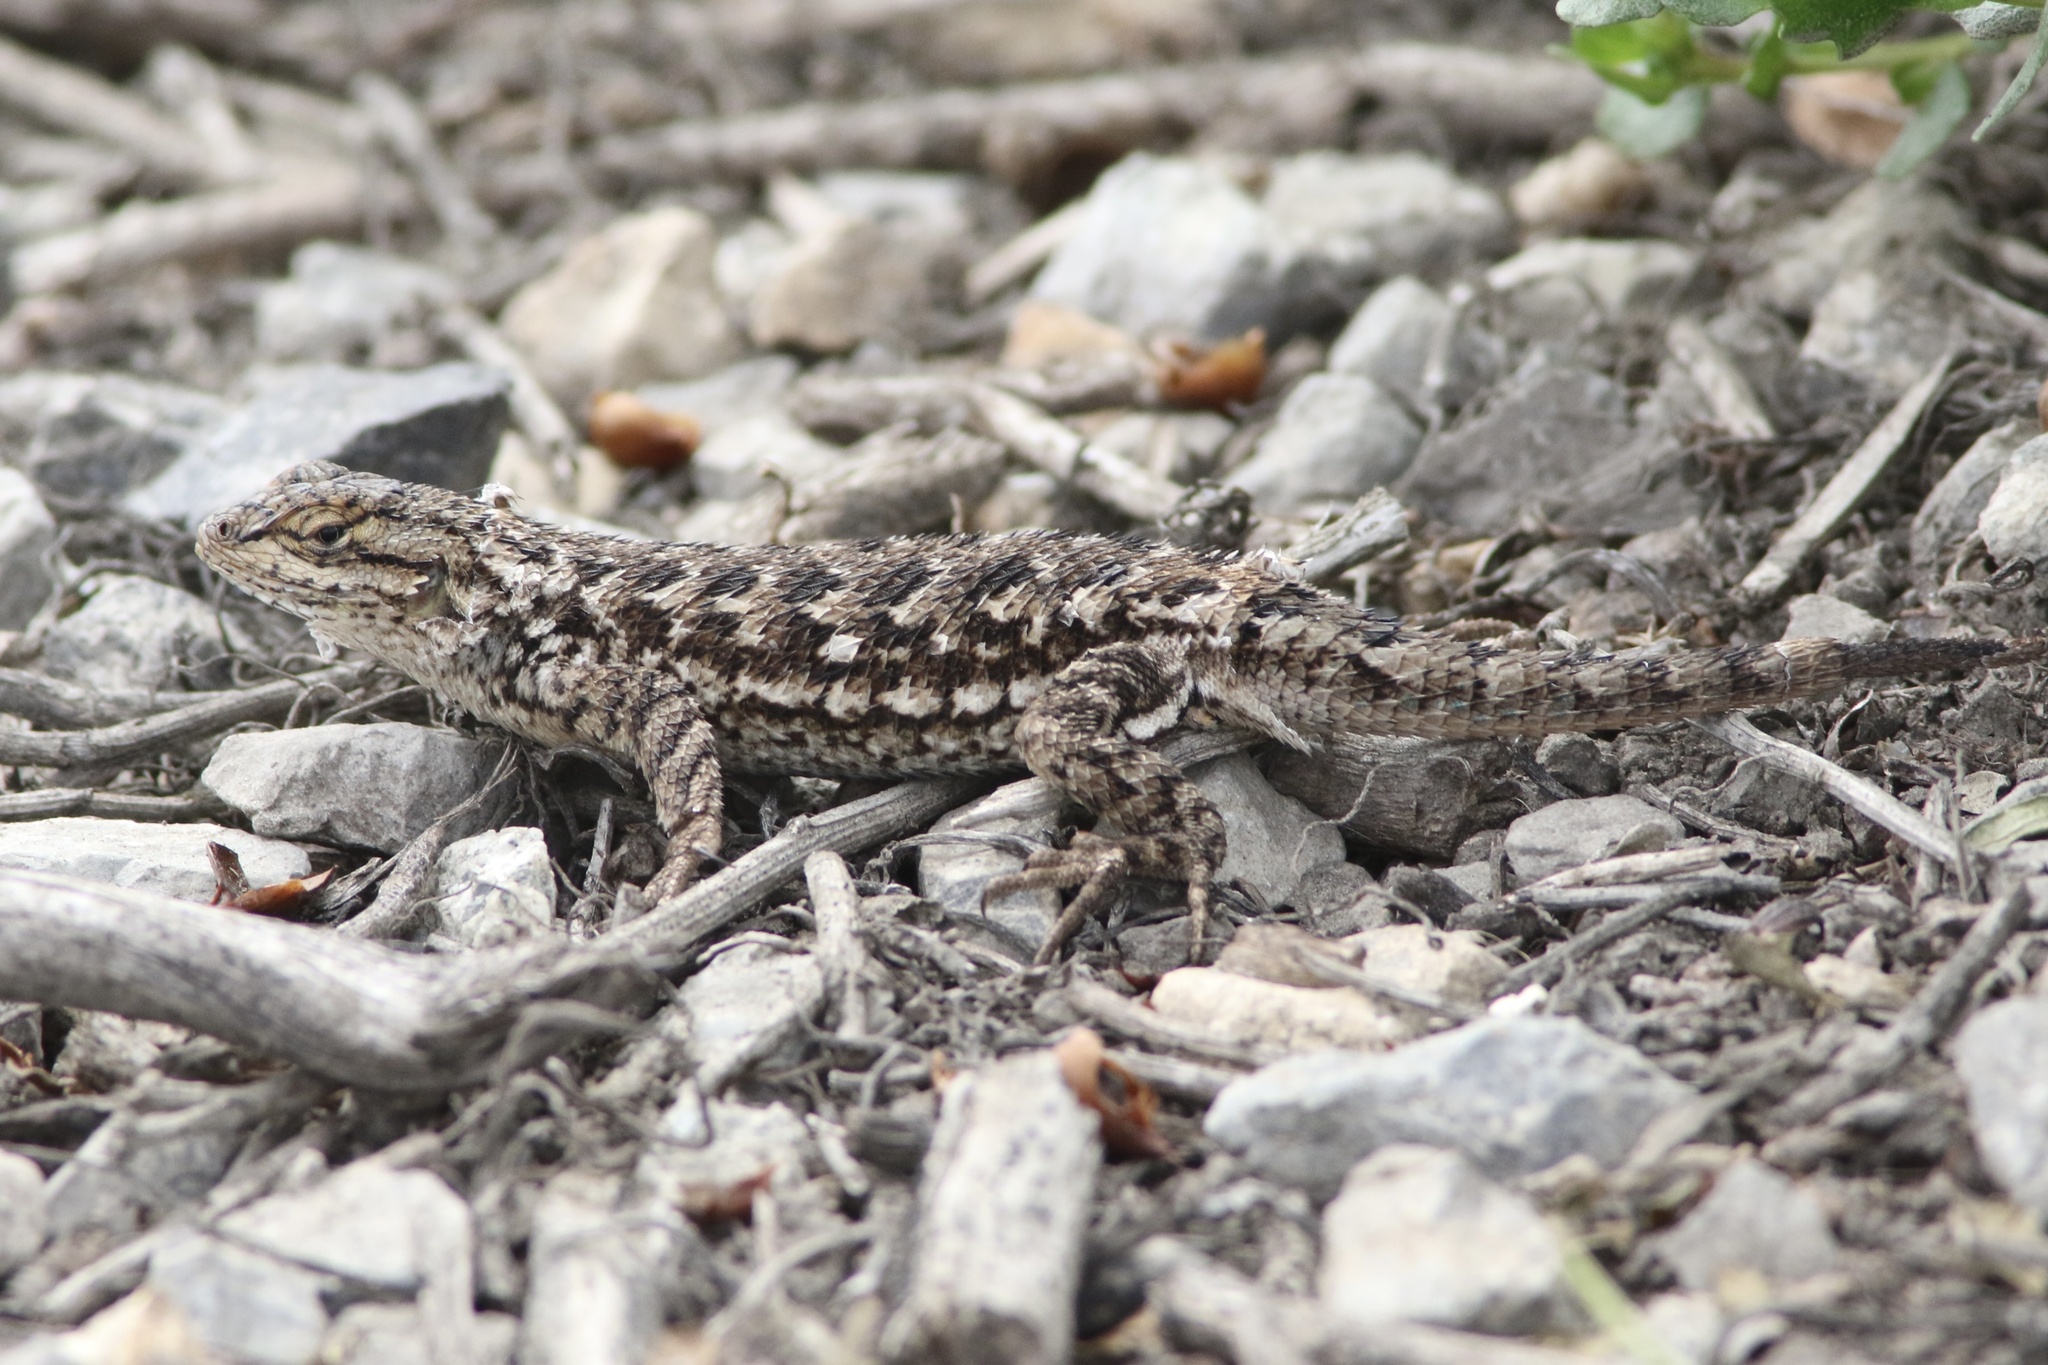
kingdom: Animalia
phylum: Chordata
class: Squamata
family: Phrynosomatidae
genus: Sceloporus
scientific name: Sceloporus occidentalis
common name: Western fence lizard
